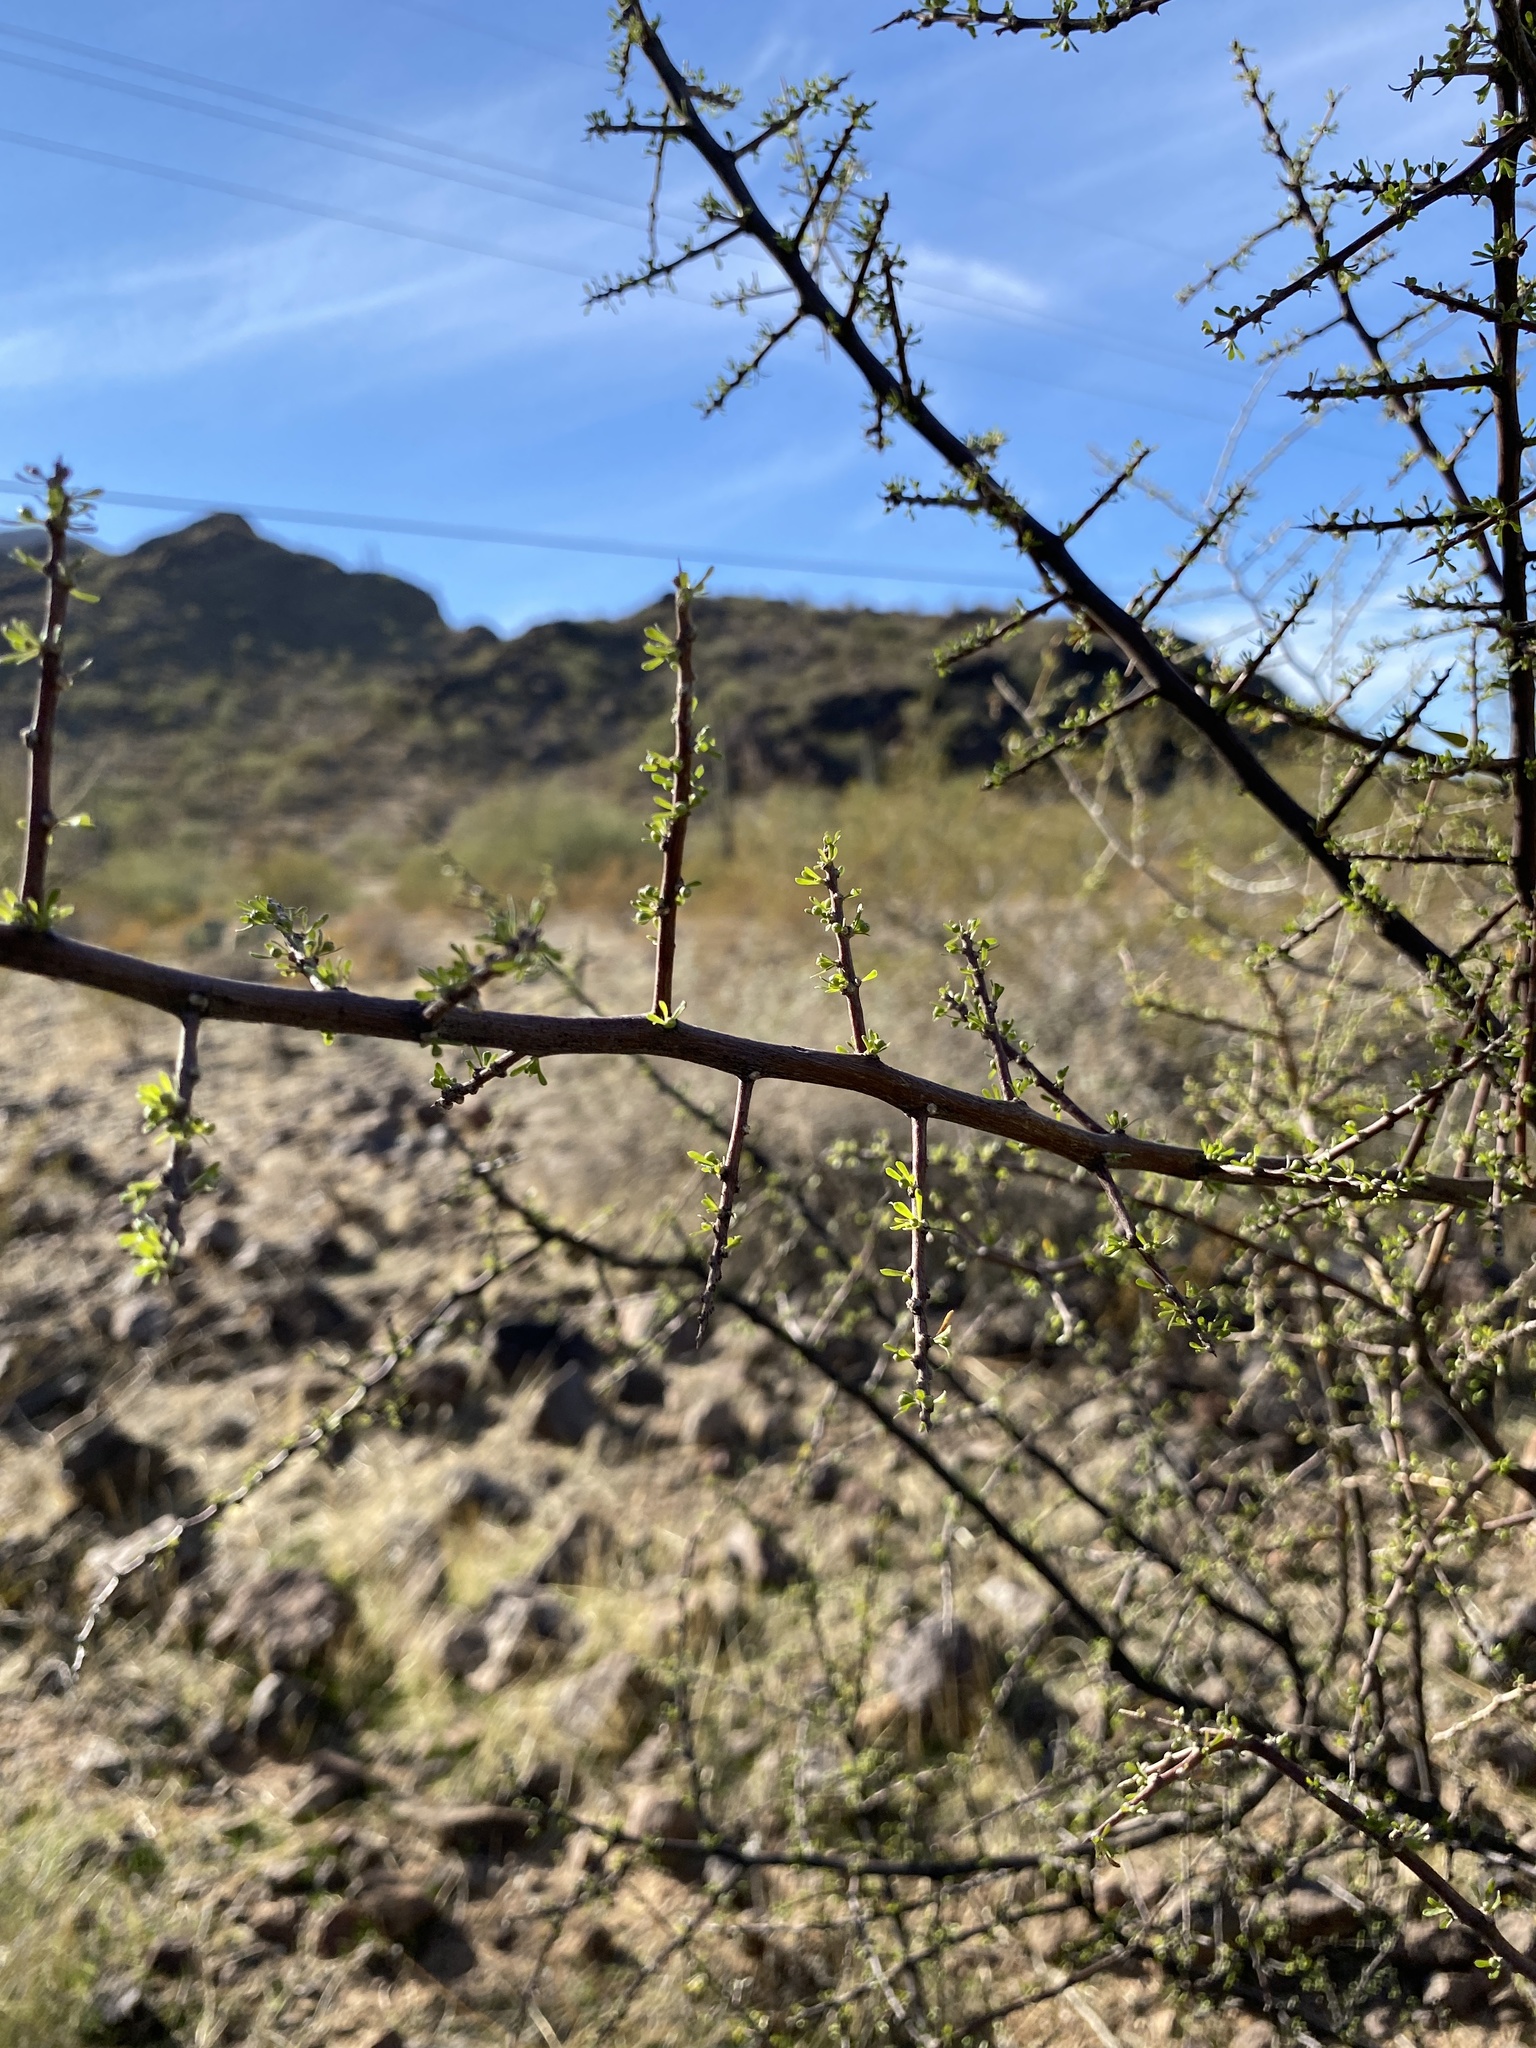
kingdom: Plantae
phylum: Tracheophyta
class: Magnoliopsida
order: Solanales
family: Solanaceae
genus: Lycium
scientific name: Lycium berlandieri
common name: Berlandier wolfberry
